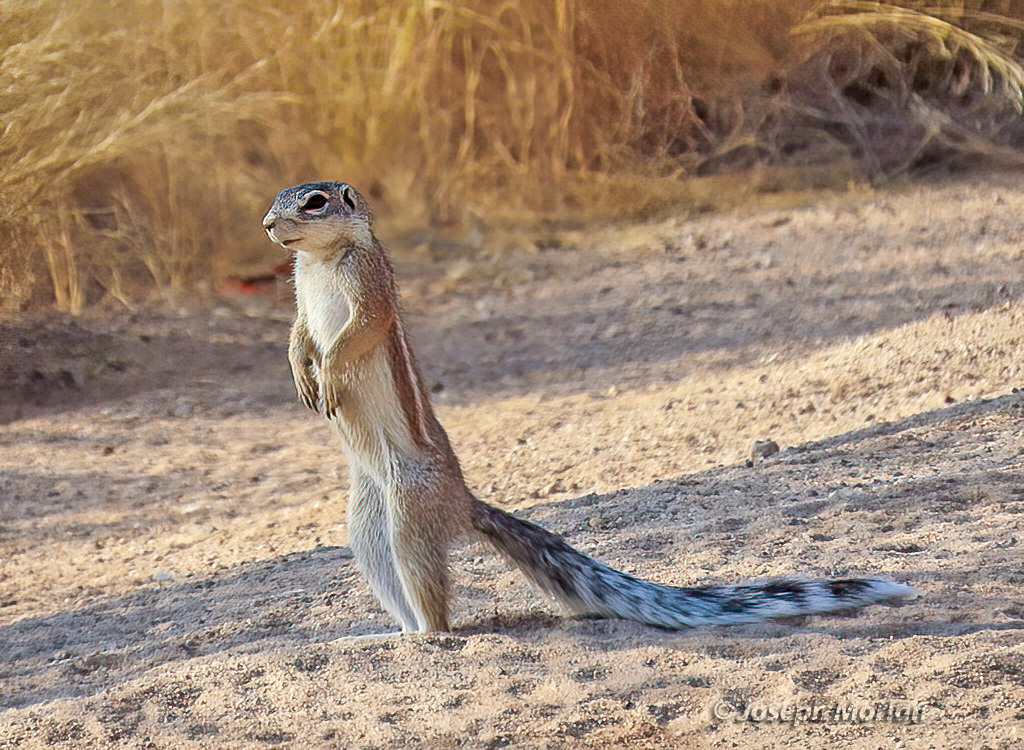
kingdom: Animalia
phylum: Chordata
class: Mammalia
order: Rodentia
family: Sciuridae
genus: Xerus
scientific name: Xerus inauris
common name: South african ground squirrel
